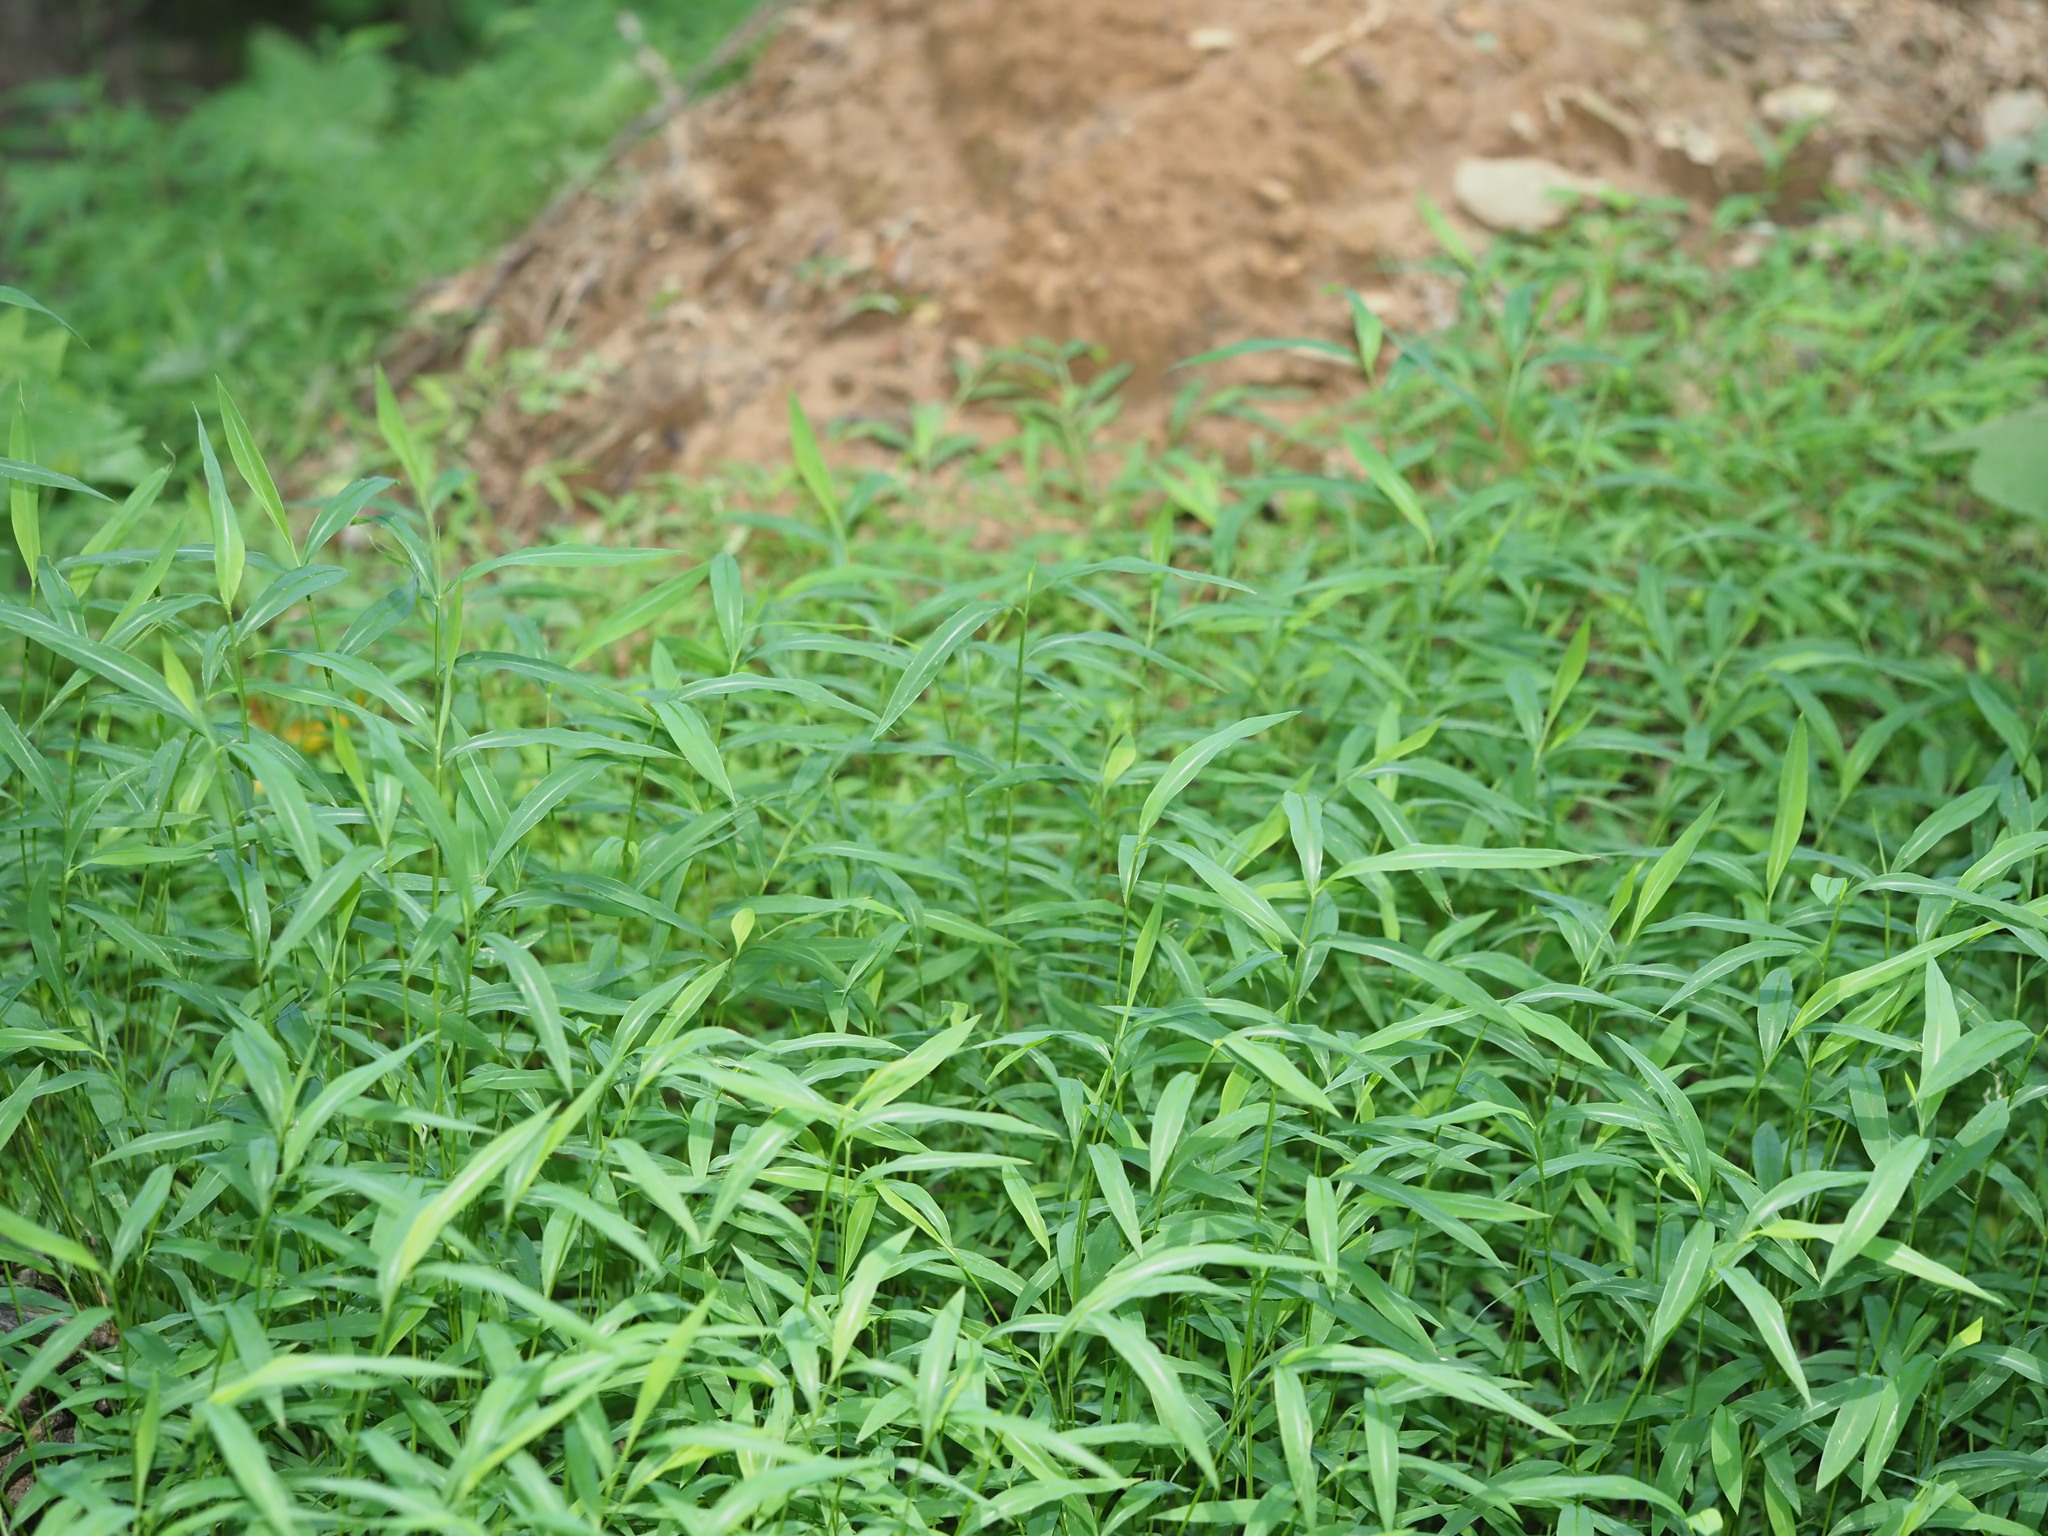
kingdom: Plantae
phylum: Tracheophyta
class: Liliopsida
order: Poales
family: Poaceae
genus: Microstegium
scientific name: Microstegium vimineum
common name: Japanese stiltgrass
